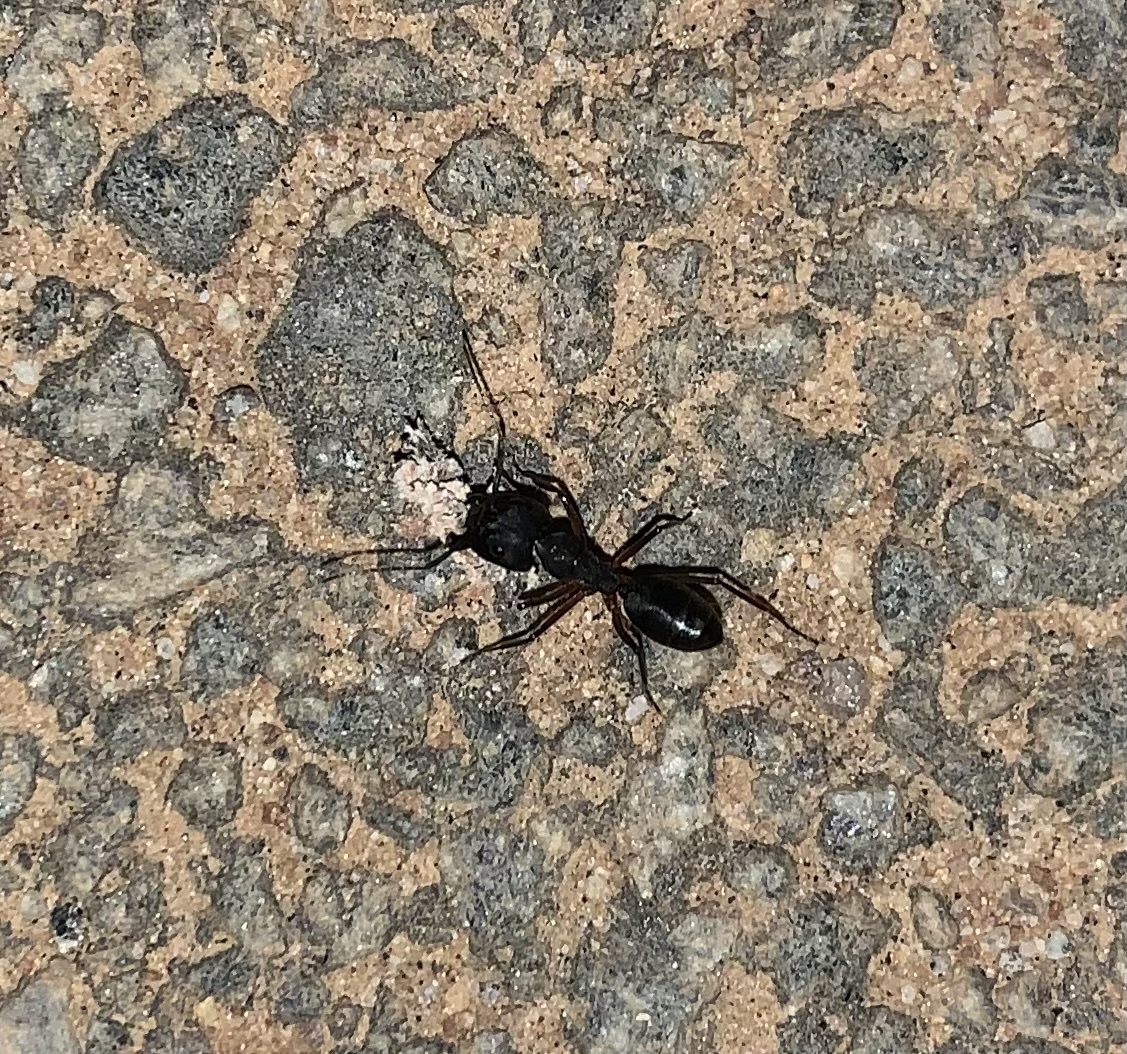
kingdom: Animalia
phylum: Arthropoda
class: Insecta
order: Hymenoptera
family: Formicidae
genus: Camponotus
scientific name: Camponotus compressus
